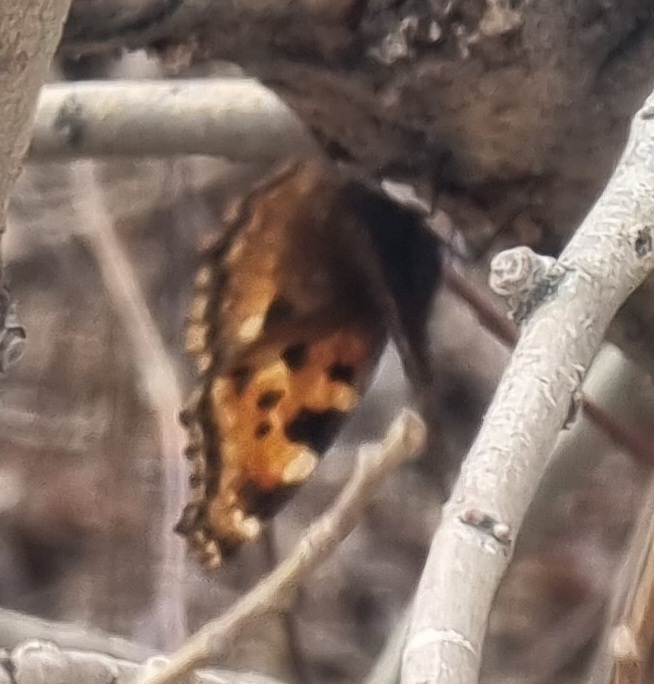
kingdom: Animalia
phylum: Arthropoda
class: Insecta
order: Lepidoptera
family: Nymphalidae
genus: Nymphalis
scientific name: Nymphalis polychloros
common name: Large tortoiseshell
